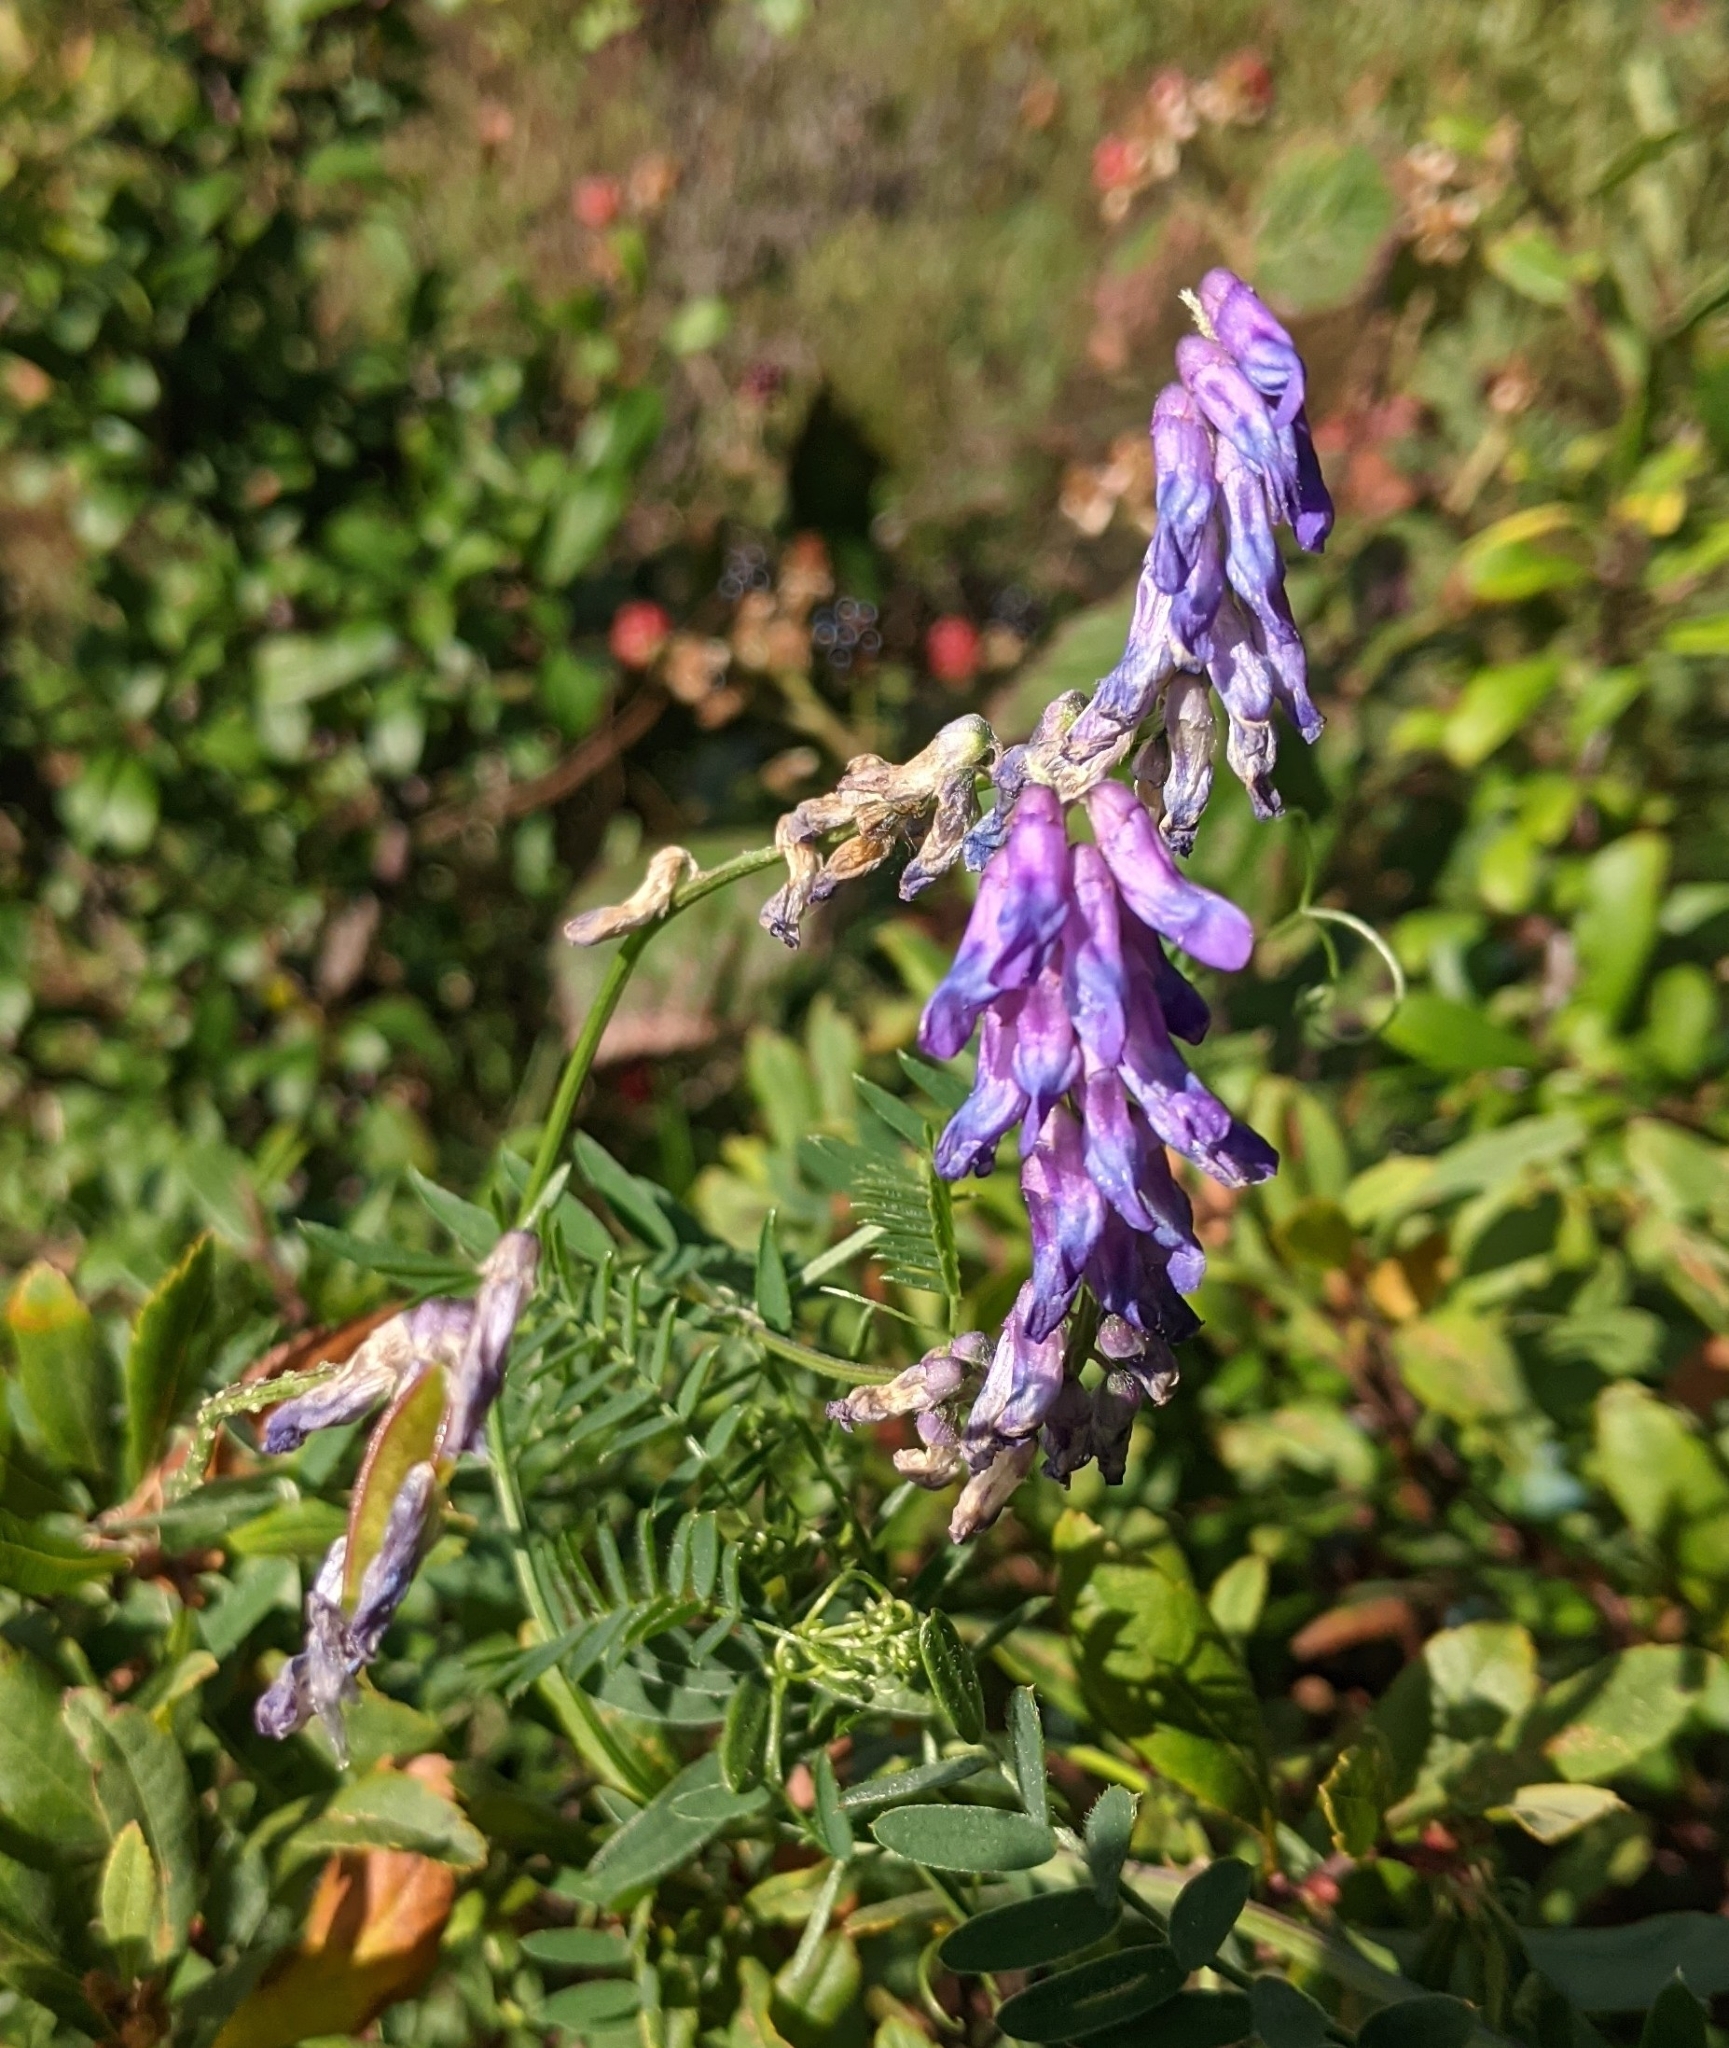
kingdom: Plantae
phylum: Tracheophyta
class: Magnoliopsida
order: Fabales
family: Fabaceae
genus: Vicia
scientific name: Vicia cracca
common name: Bird vetch
